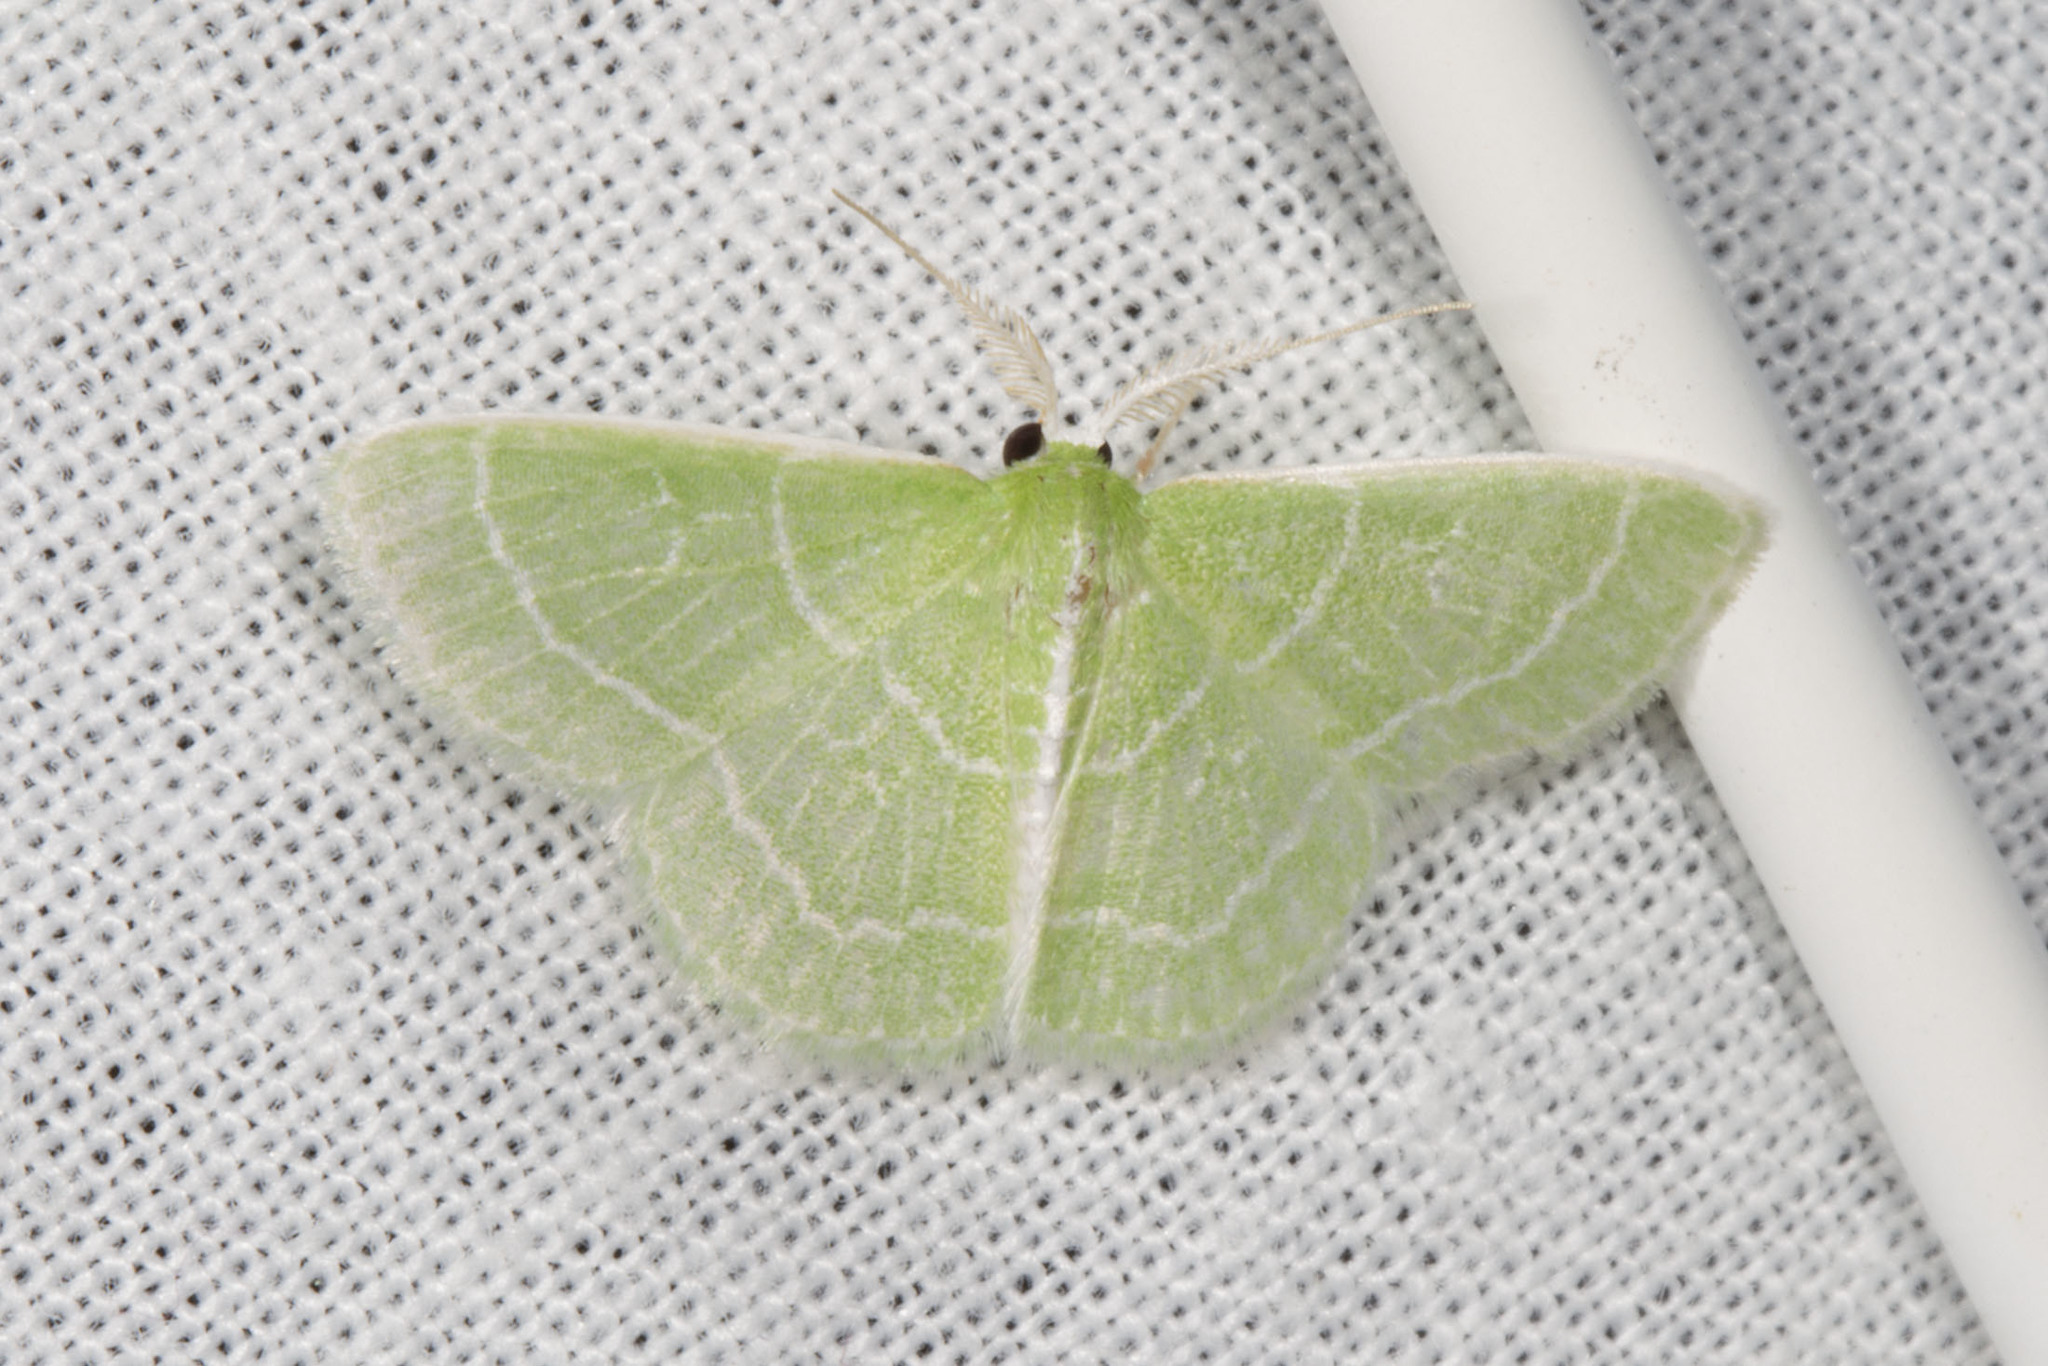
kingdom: Animalia
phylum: Arthropoda
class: Insecta
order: Lepidoptera
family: Geometridae
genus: Synchlora
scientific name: Synchlora aerata
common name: Wavy-lined emerald
